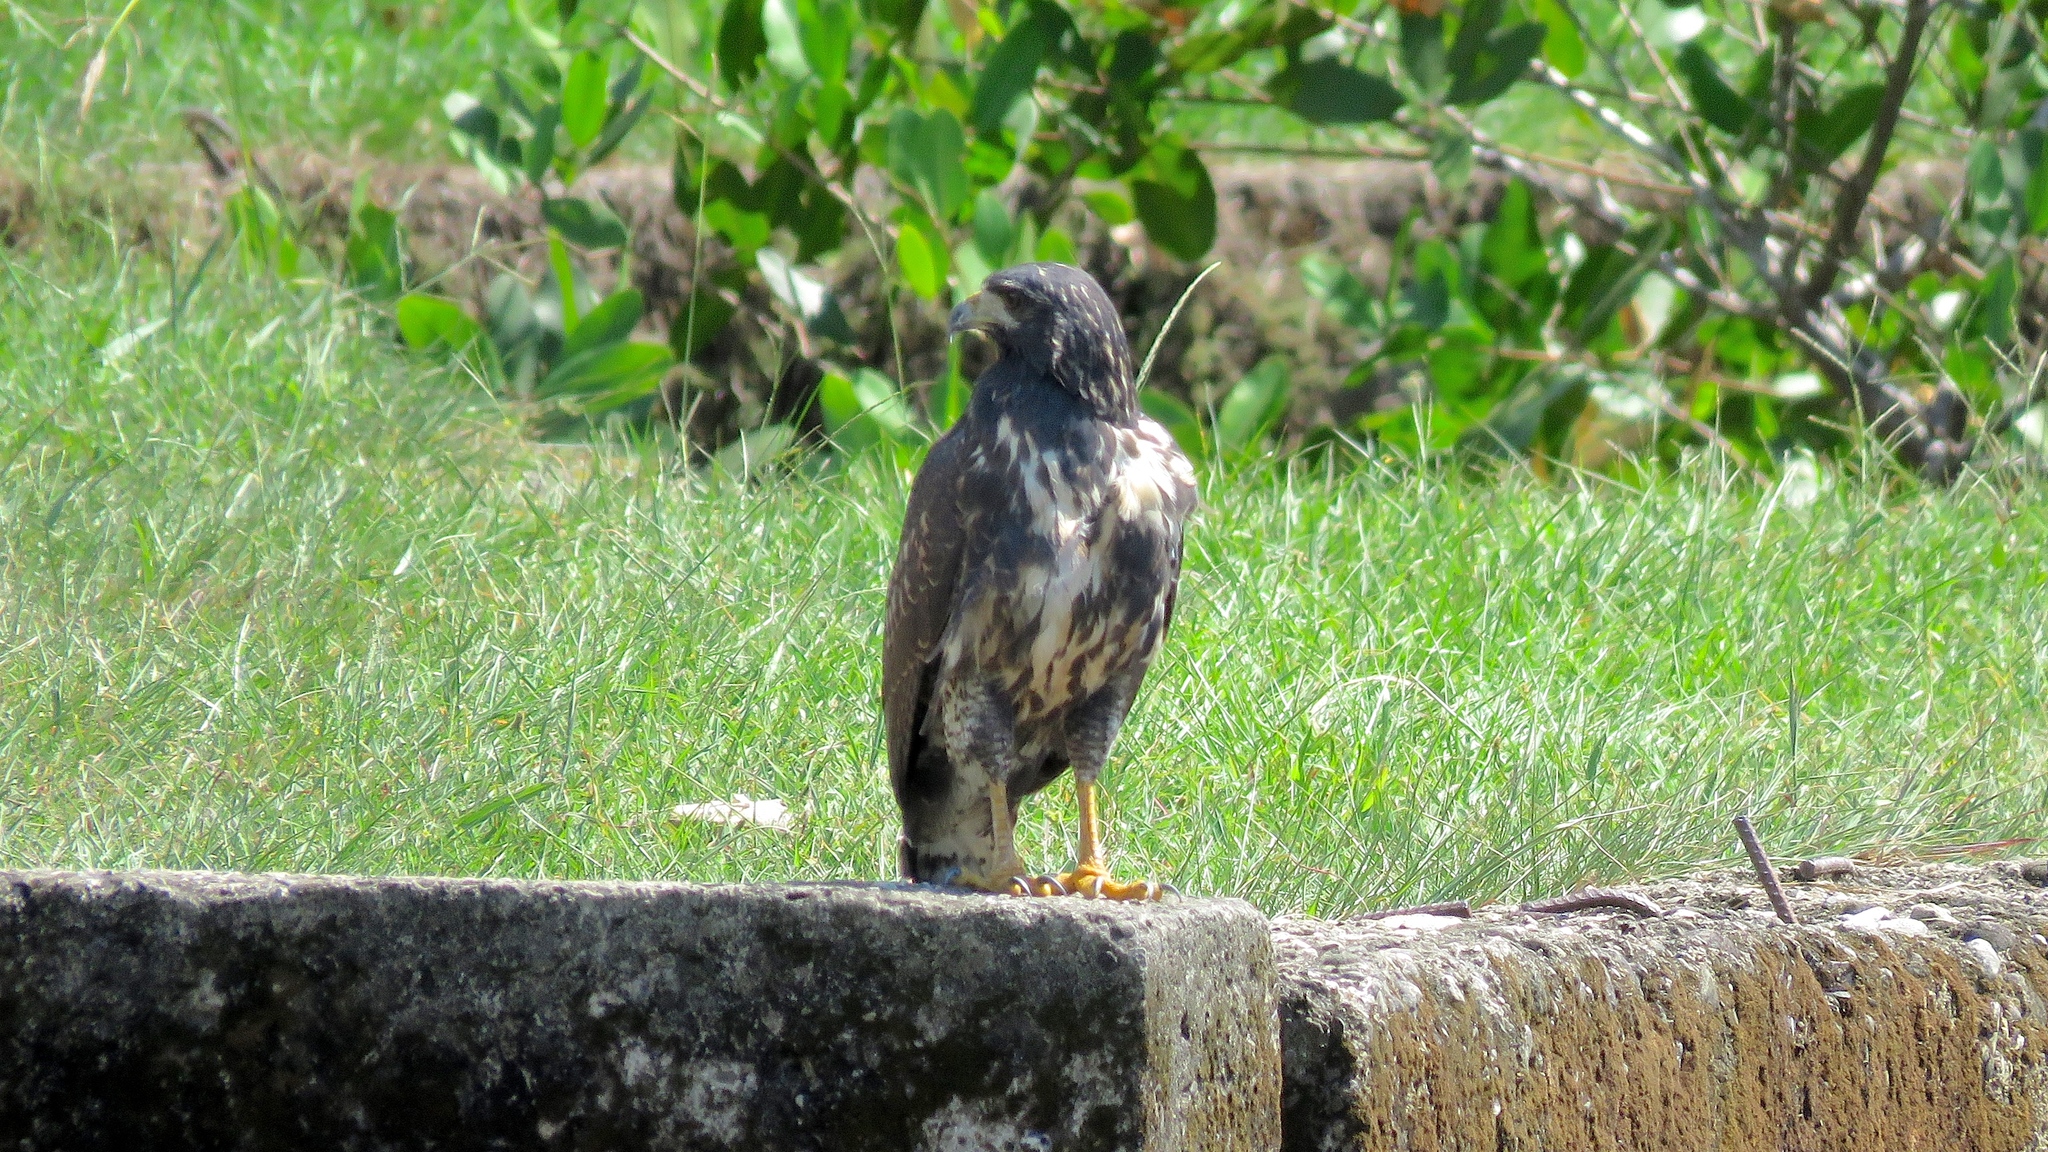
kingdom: Animalia
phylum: Chordata
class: Aves
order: Accipitriformes
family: Accipitridae
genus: Buteogallus
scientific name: Buteogallus anthracinus
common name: Common black hawk
